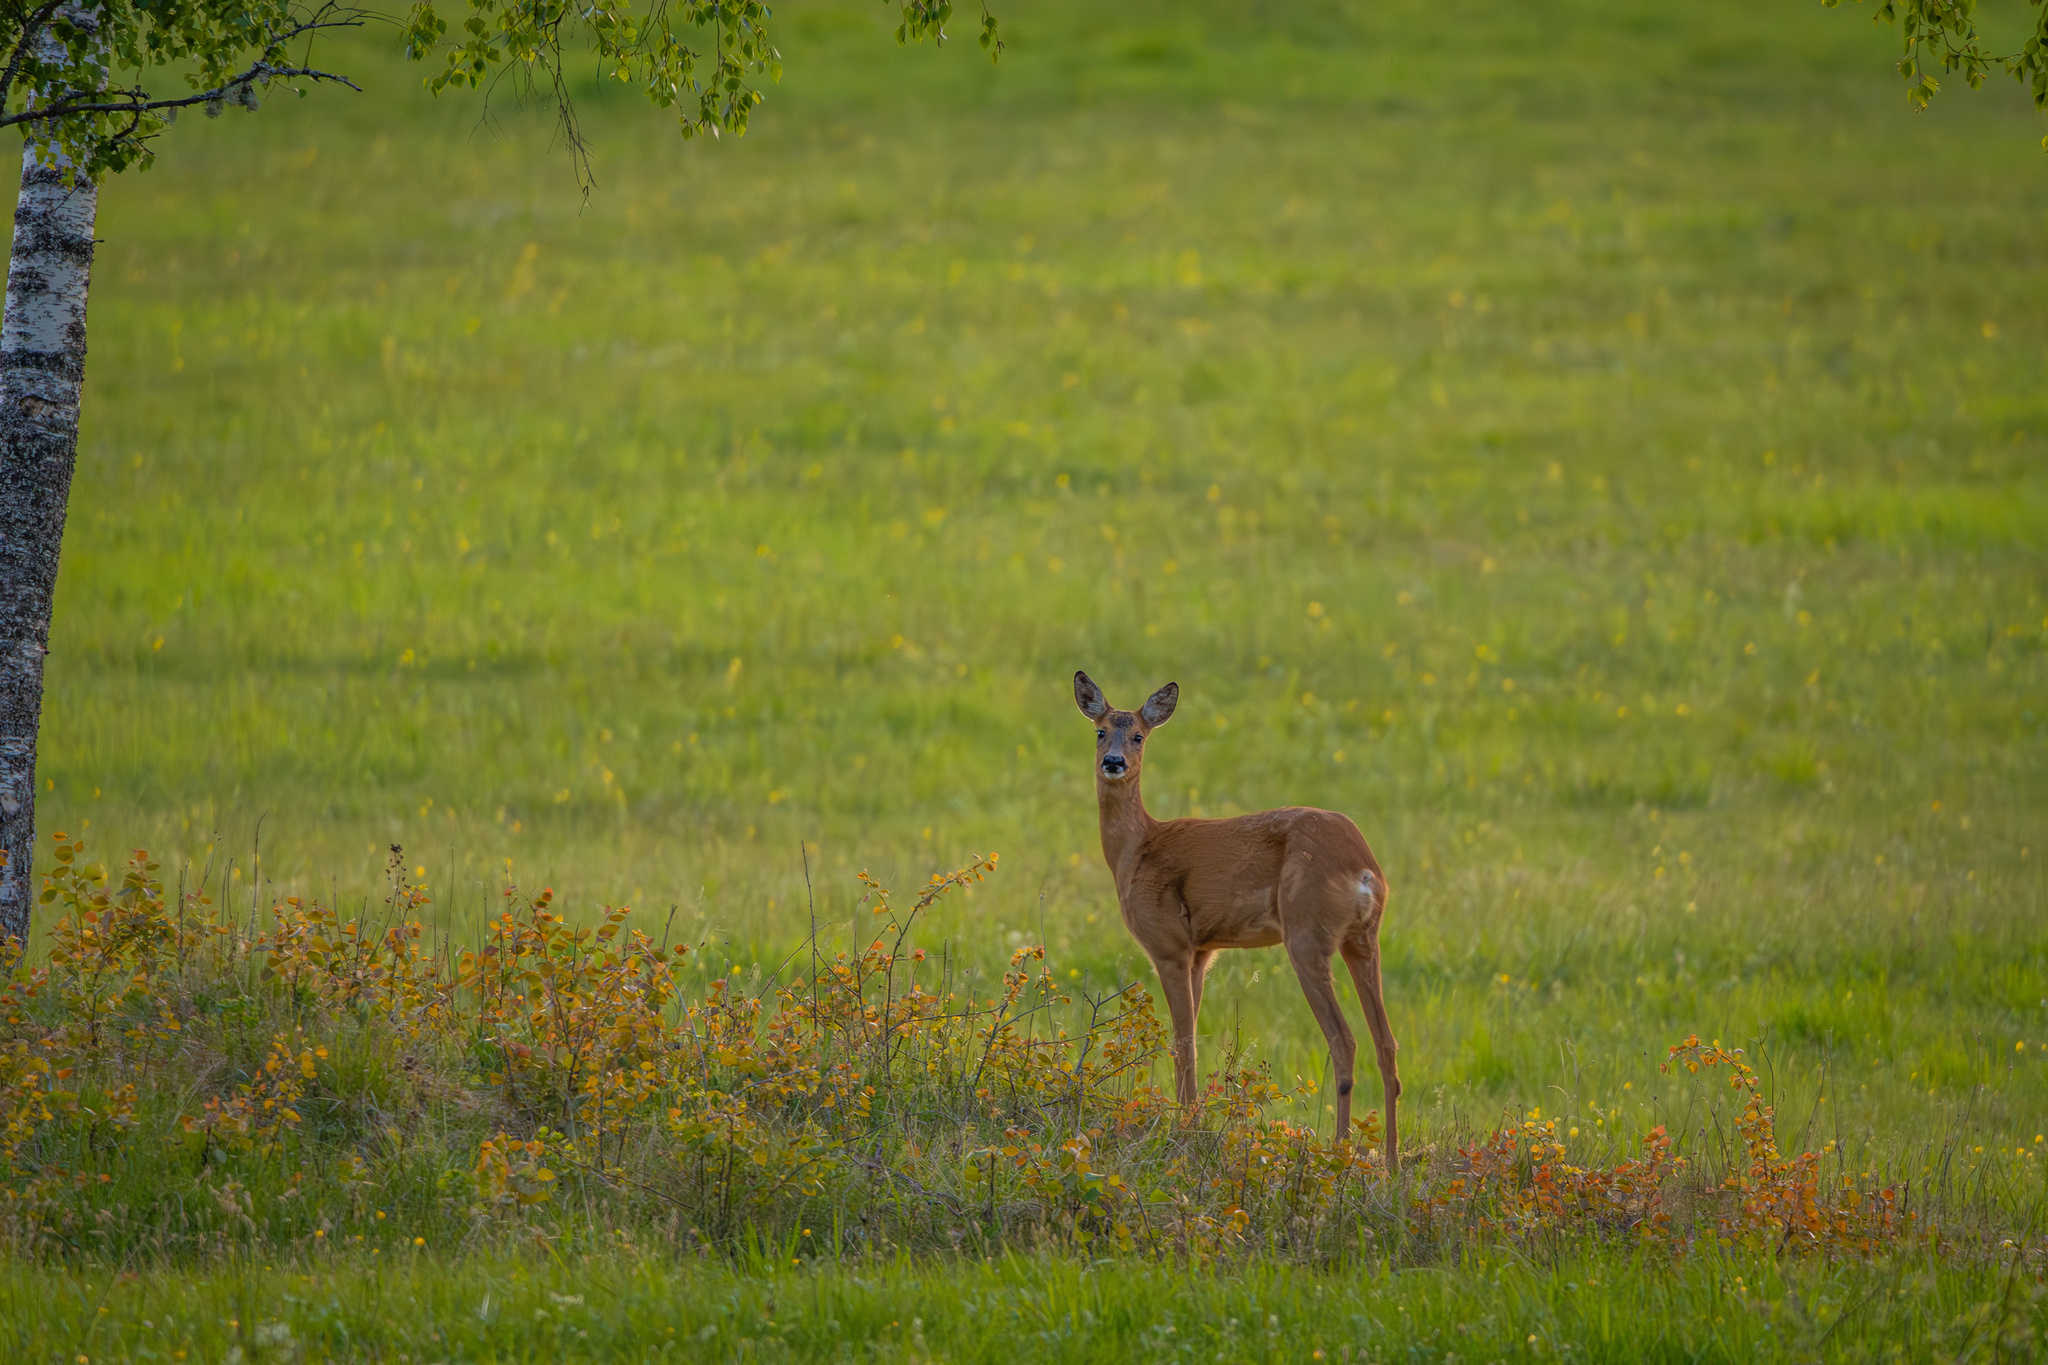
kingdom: Animalia
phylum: Chordata
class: Mammalia
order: Artiodactyla
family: Cervidae
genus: Capreolus
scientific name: Capreolus capreolus
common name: Western roe deer
